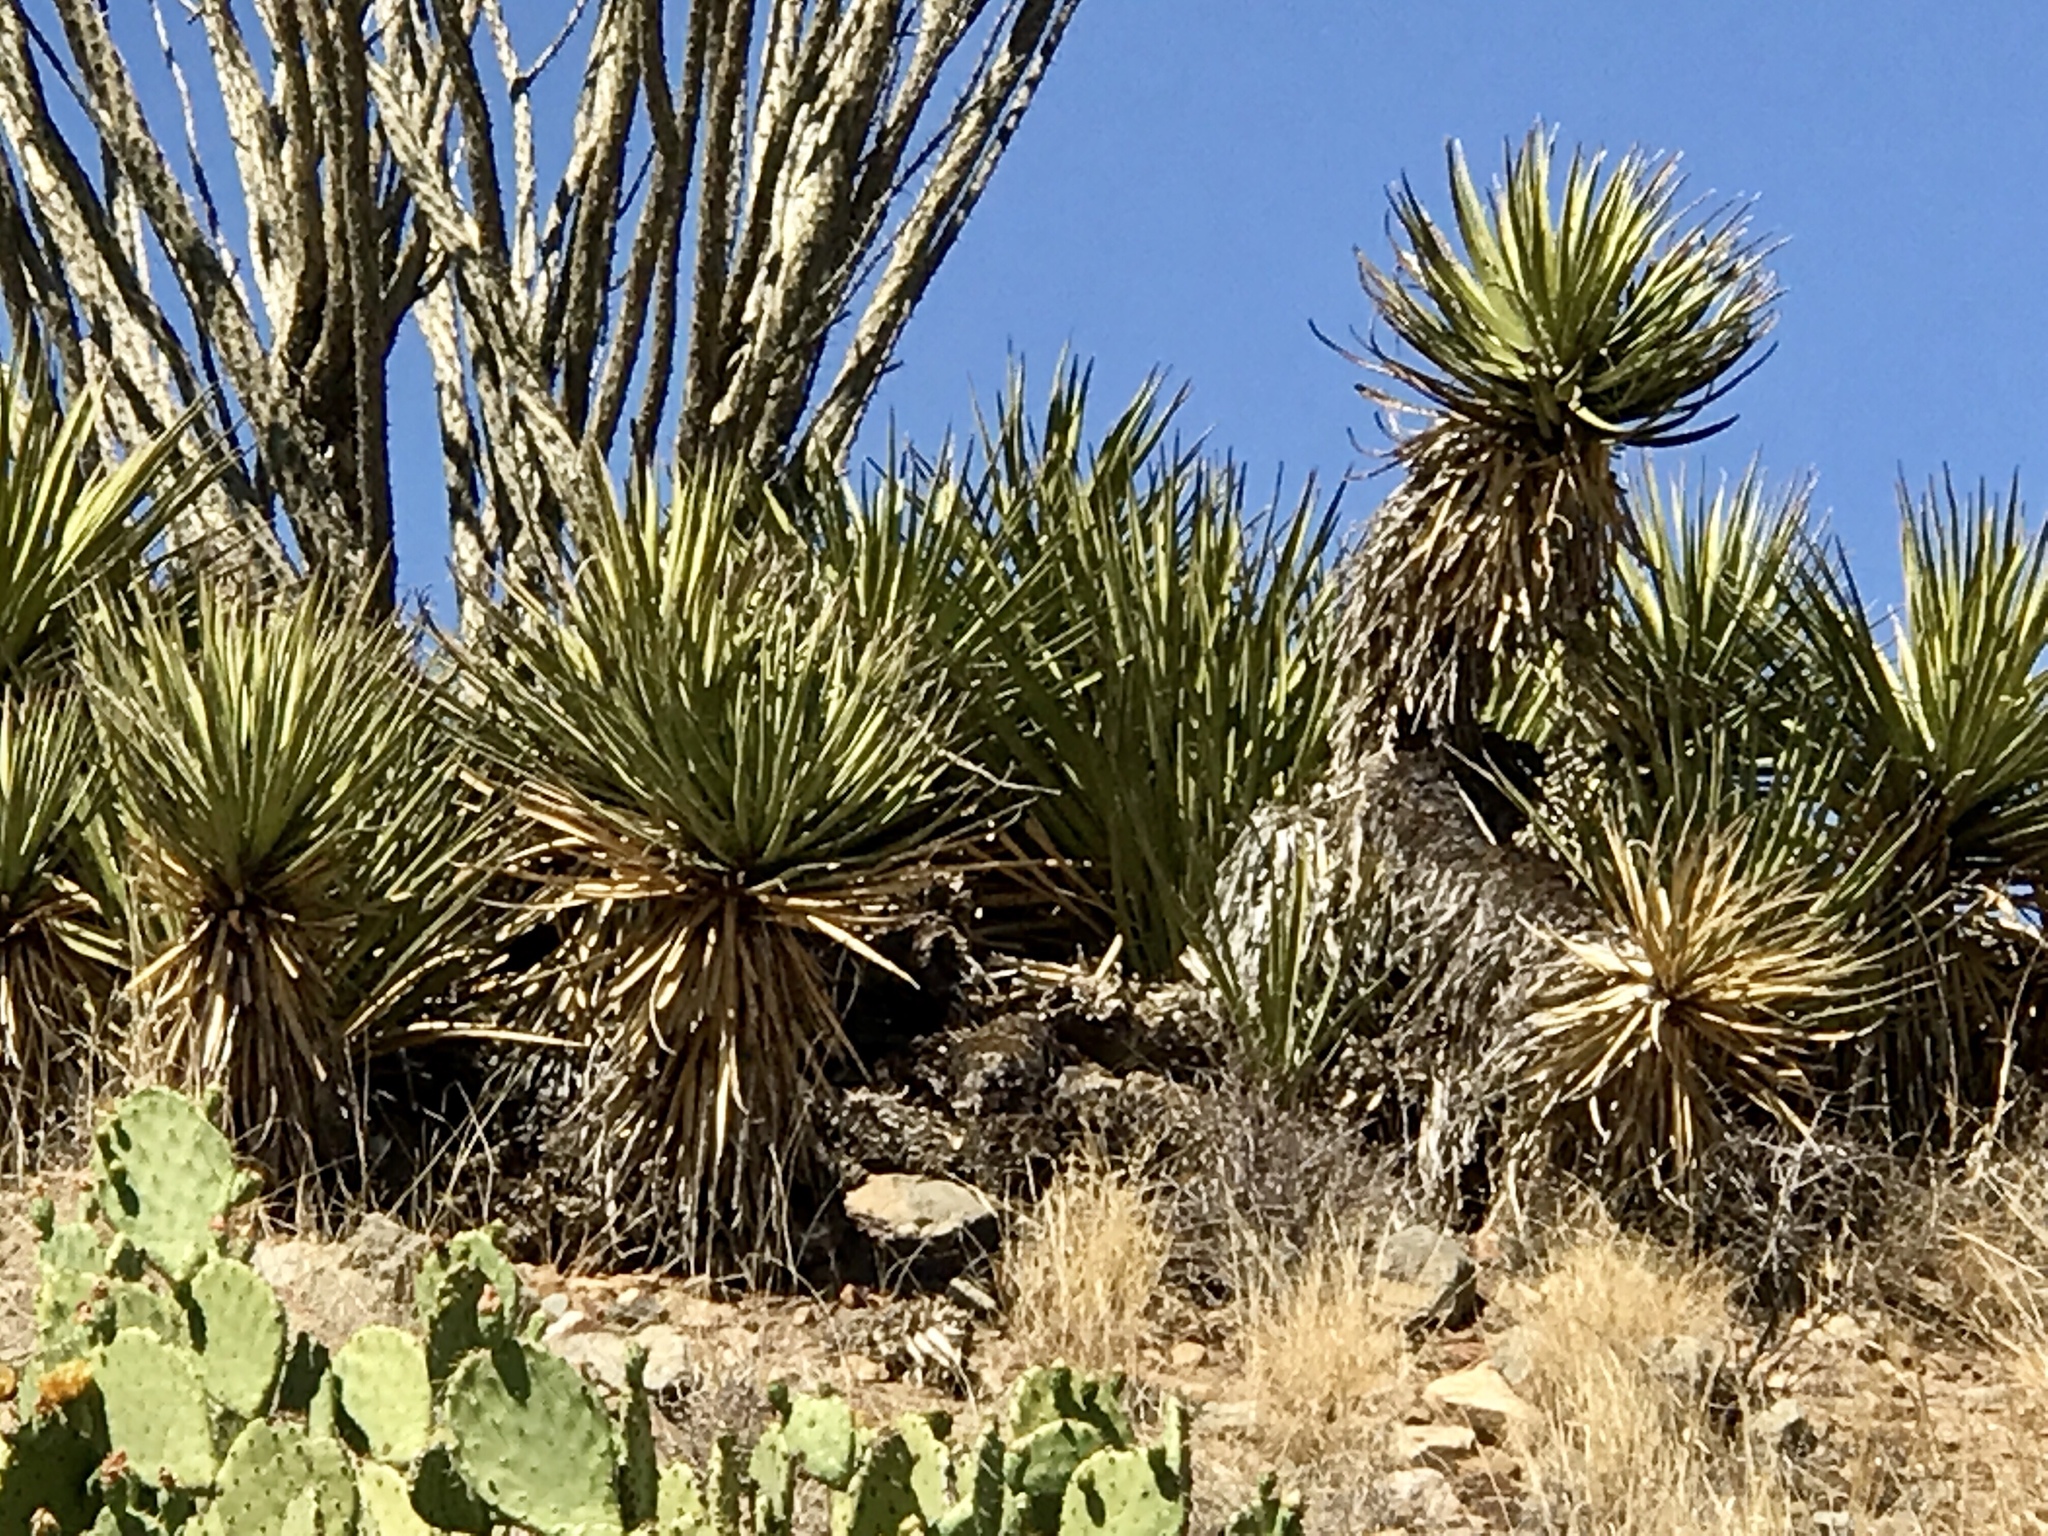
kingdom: Plantae
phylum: Tracheophyta
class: Liliopsida
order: Asparagales
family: Asparagaceae
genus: Yucca
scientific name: Yucca baccata
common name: Banana yucca
